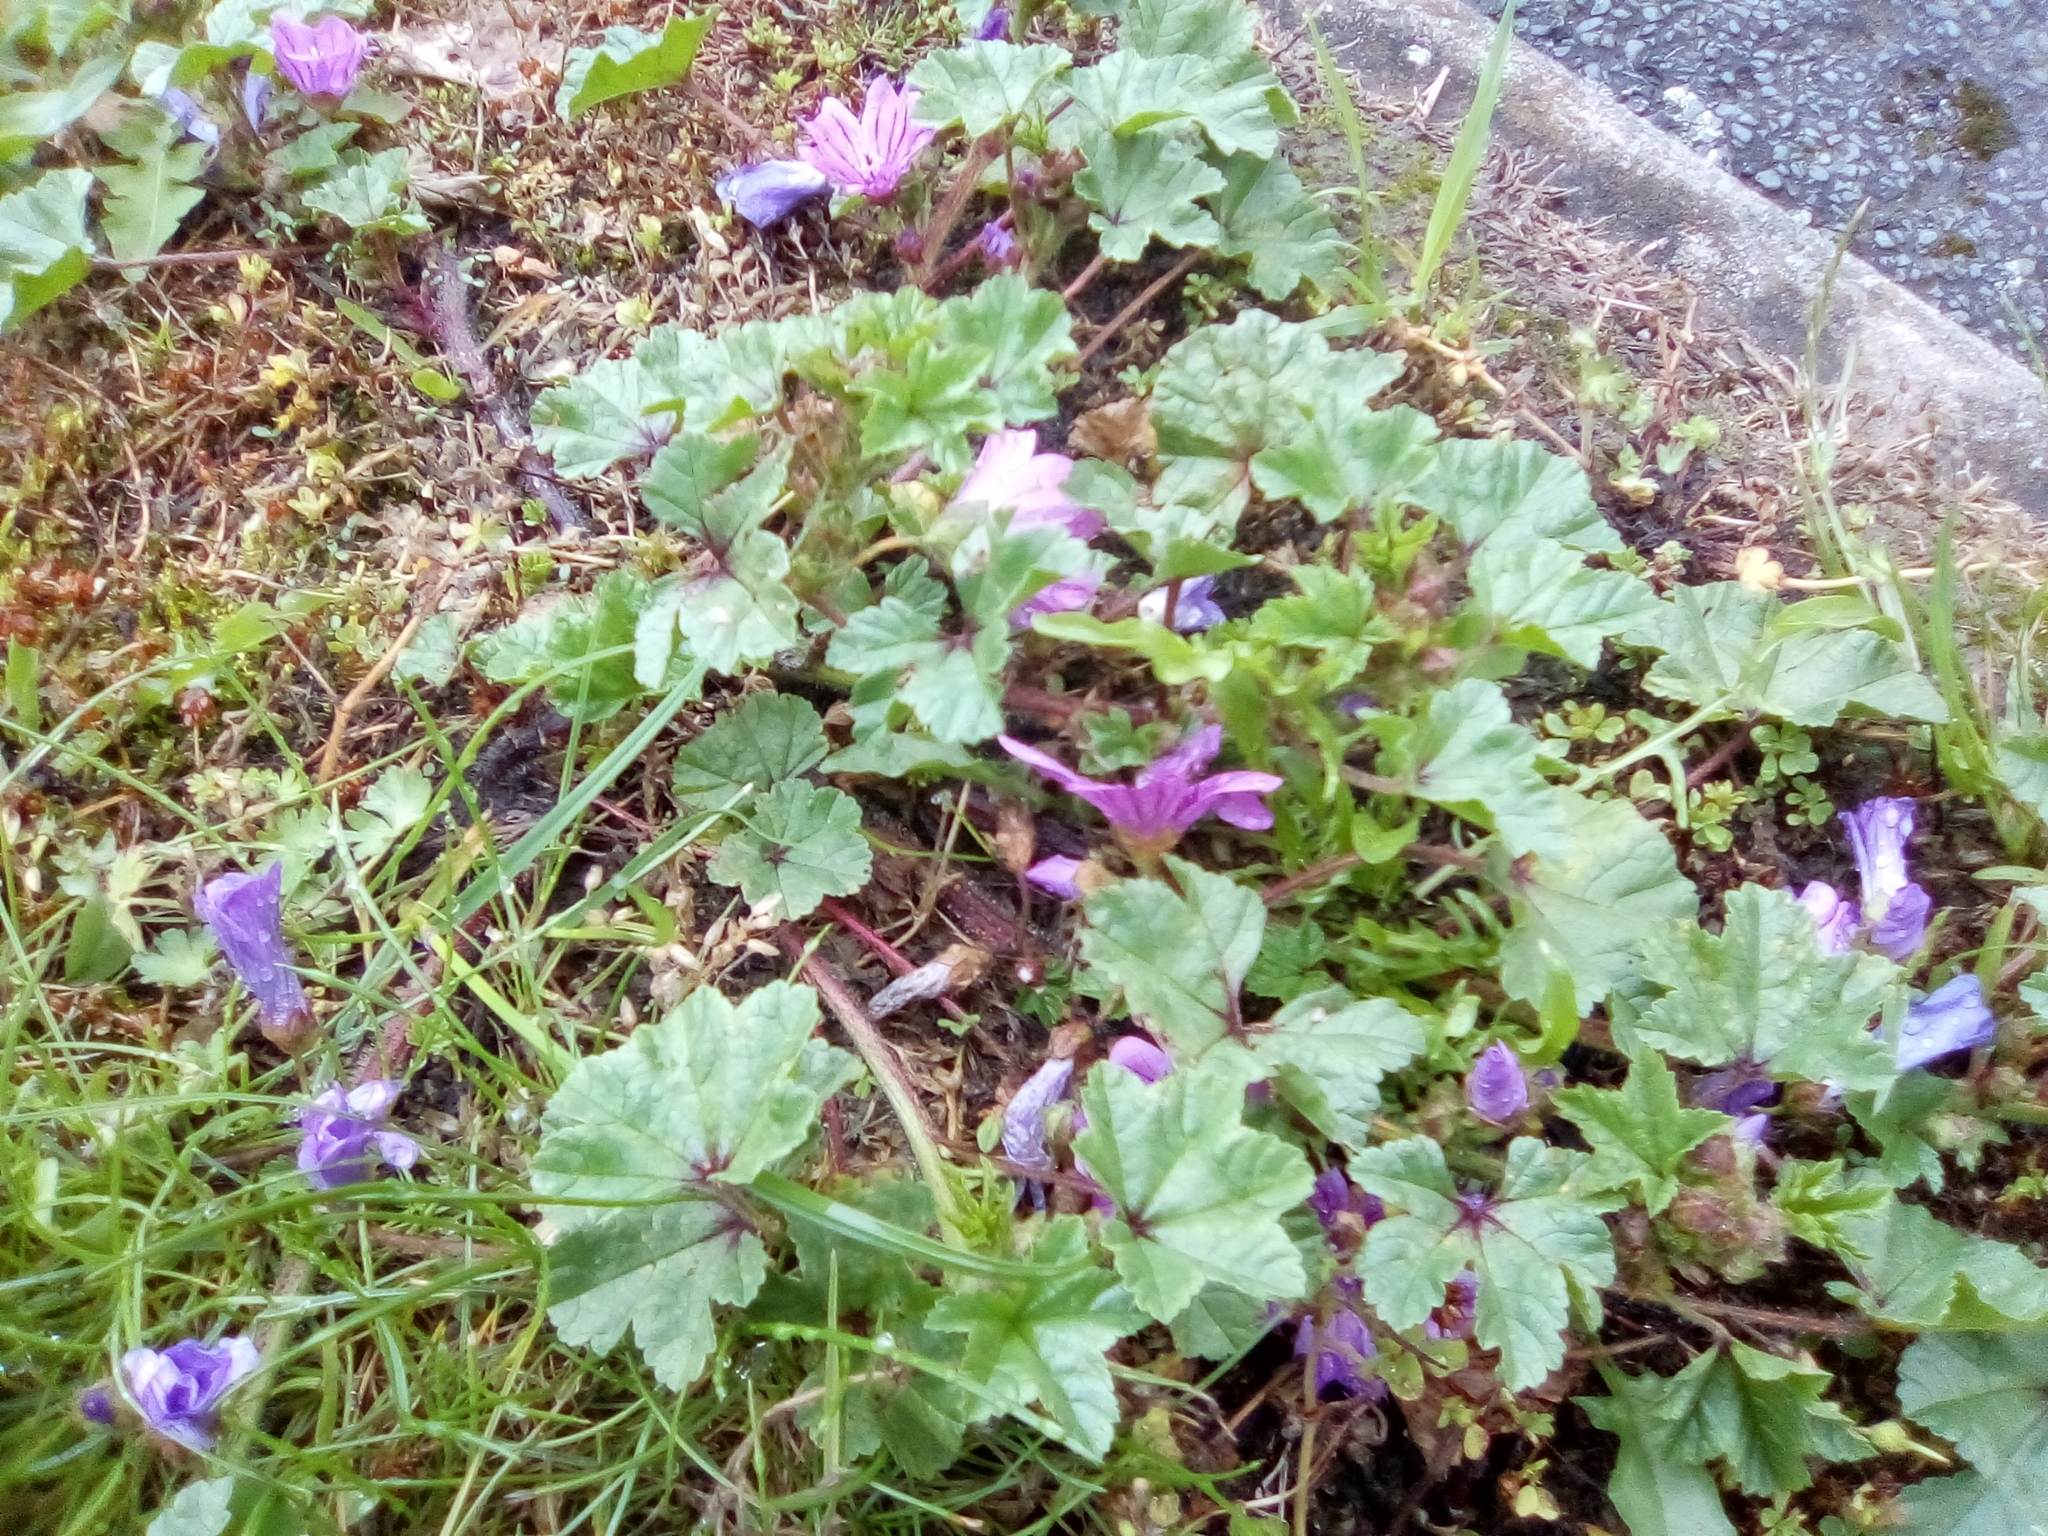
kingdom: Plantae
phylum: Tracheophyta
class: Magnoliopsida
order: Malvales
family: Malvaceae
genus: Malva
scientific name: Malva sylvestris
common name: Common mallow
